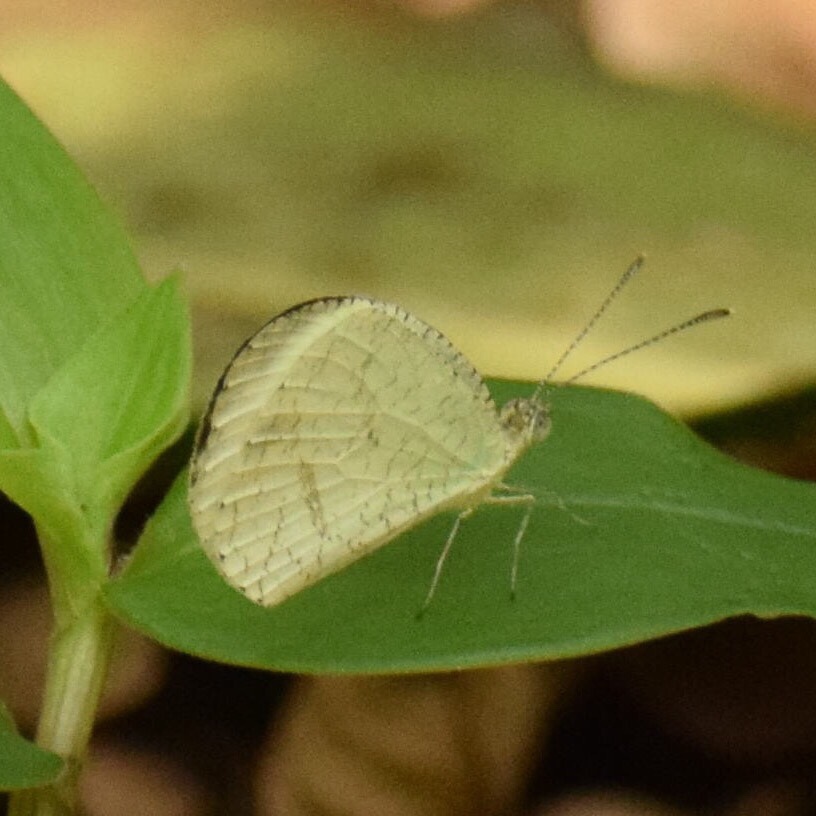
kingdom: Animalia
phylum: Arthropoda
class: Insecta
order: Lepidoptera
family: Pieridae
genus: Leptosia
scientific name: Leptosia alcesta
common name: African wood white
